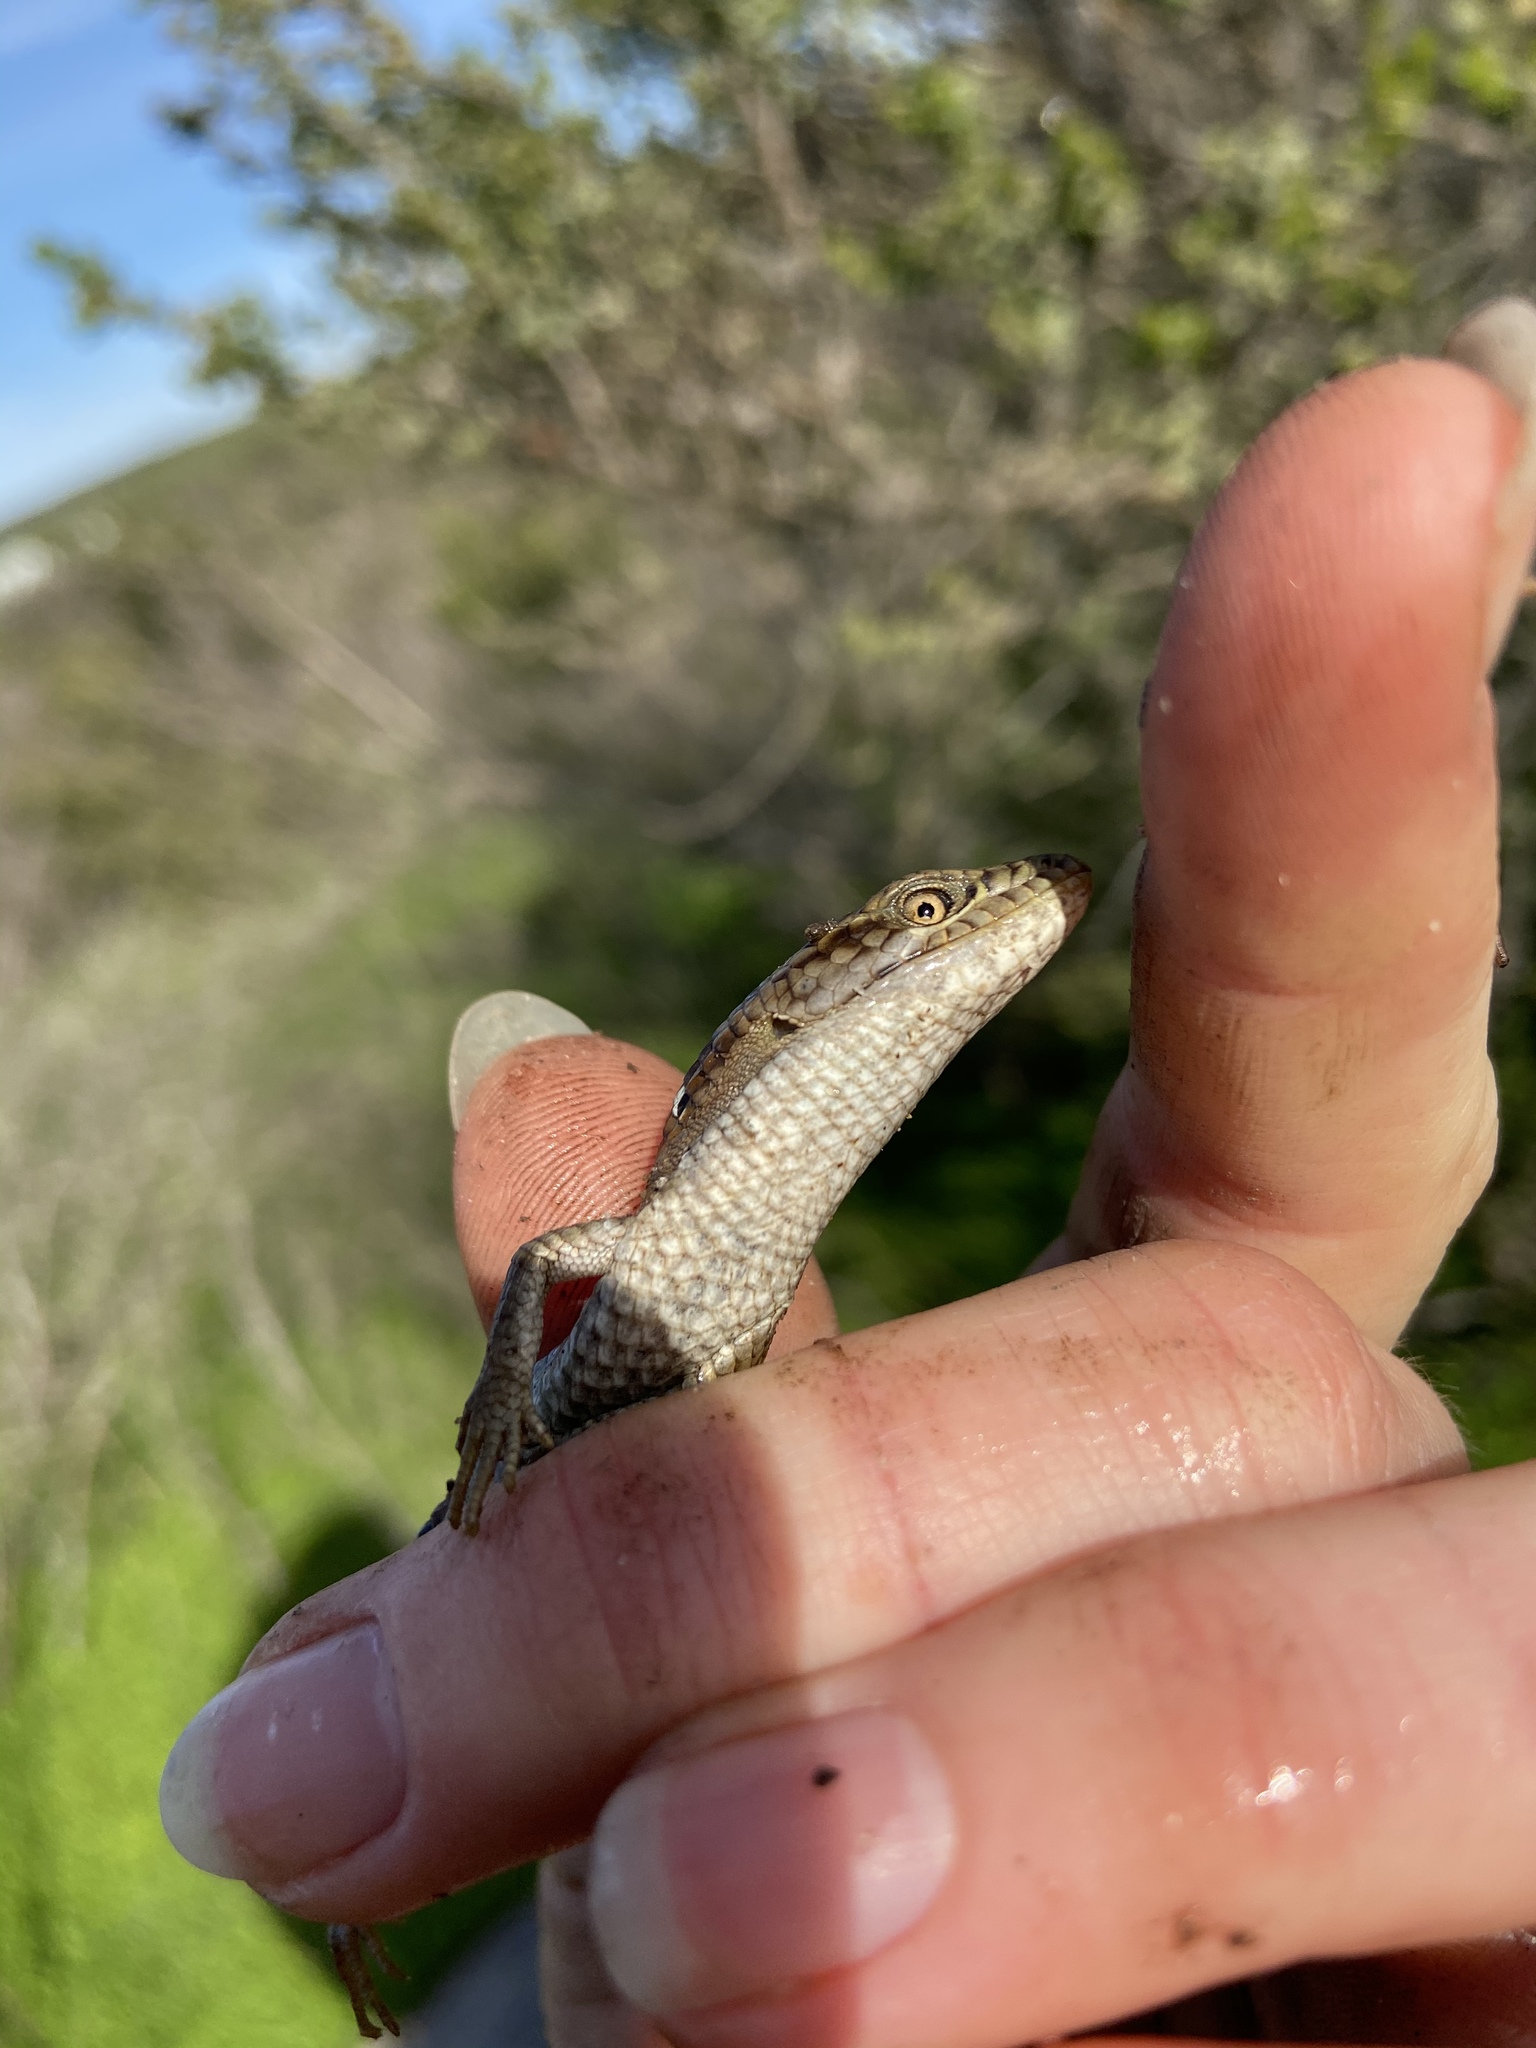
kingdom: Animalia
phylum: Chordata
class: Squamata
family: Anguidae
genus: Elgaria
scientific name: Elgaria multicarinata
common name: Southern alligator lizard
